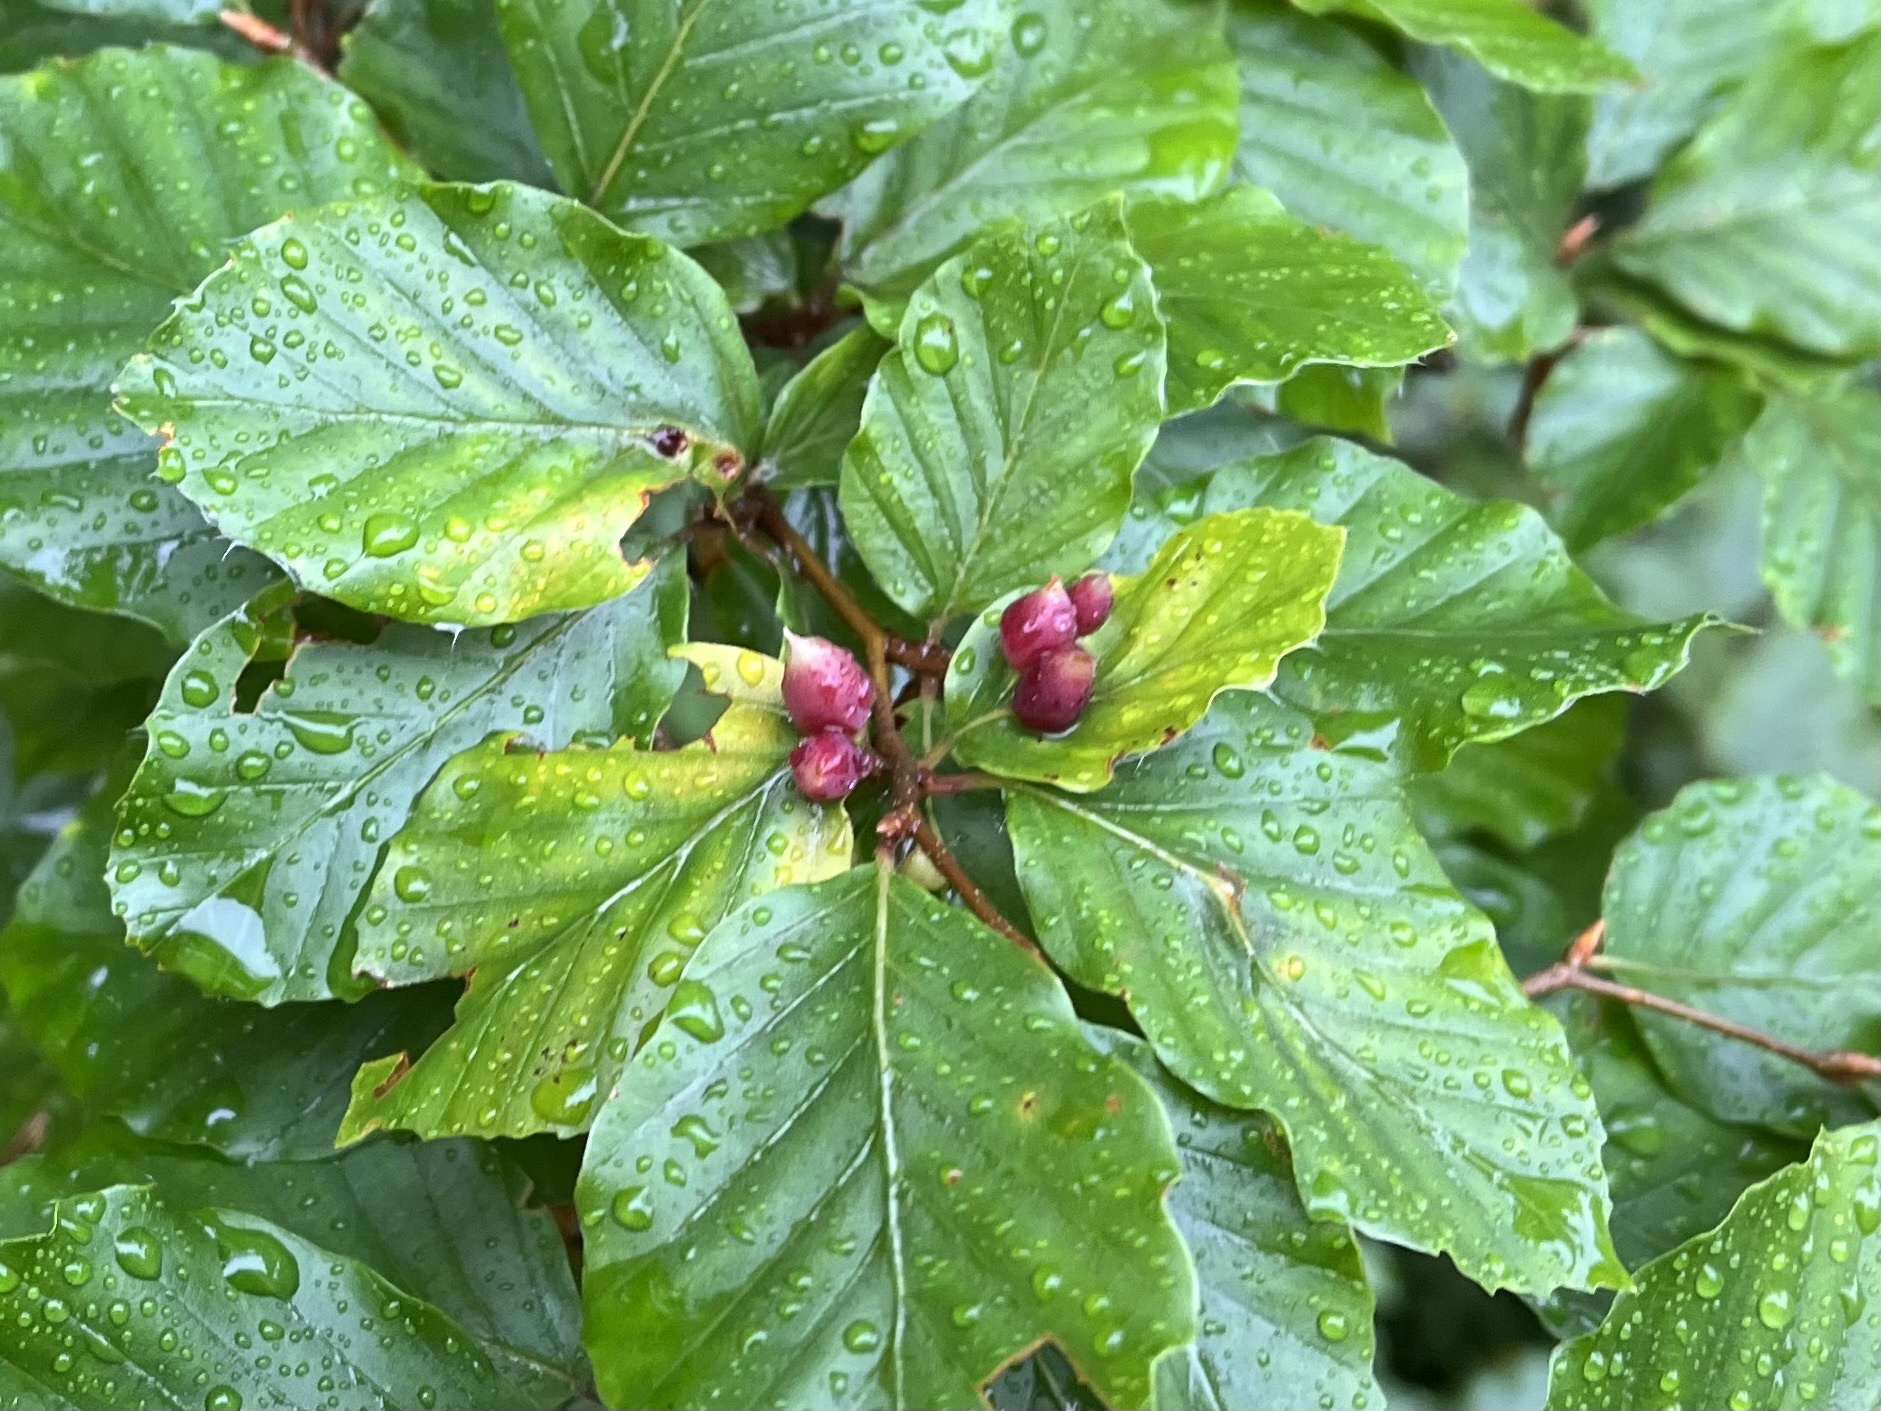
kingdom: Animalia
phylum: Arthropoda
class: Insecta
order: Diptera
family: Cecidomyiidae
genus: Mikiola
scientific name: Mikiola fagi
